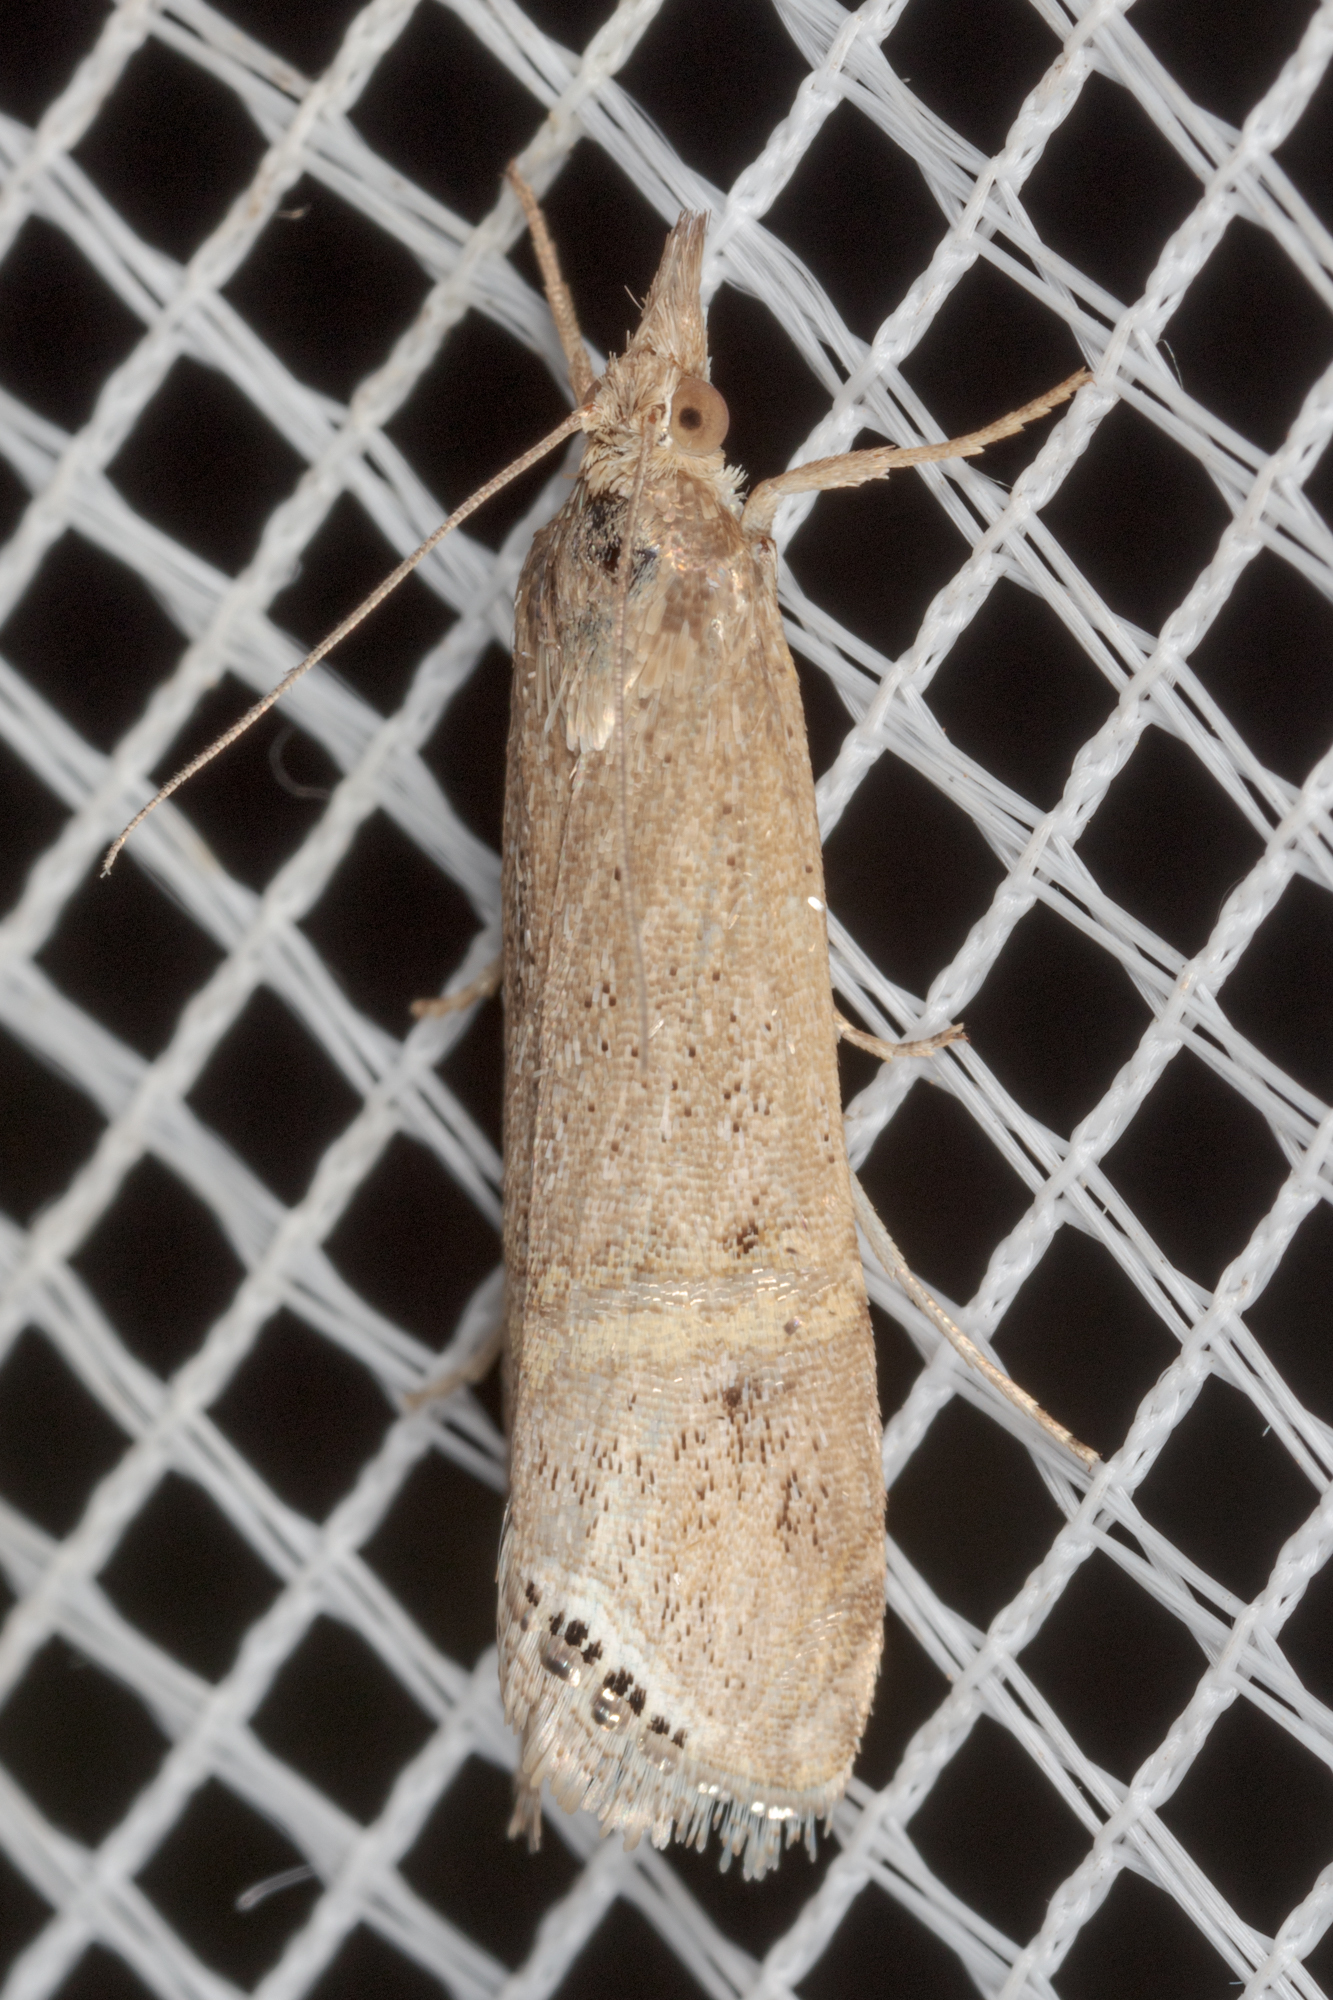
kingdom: Animalia
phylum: Arthropoda
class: Insecta
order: Lepidoptera
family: Crambidae
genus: Euchromius
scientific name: Euchromius ocellea
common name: Necklace veneer moth
